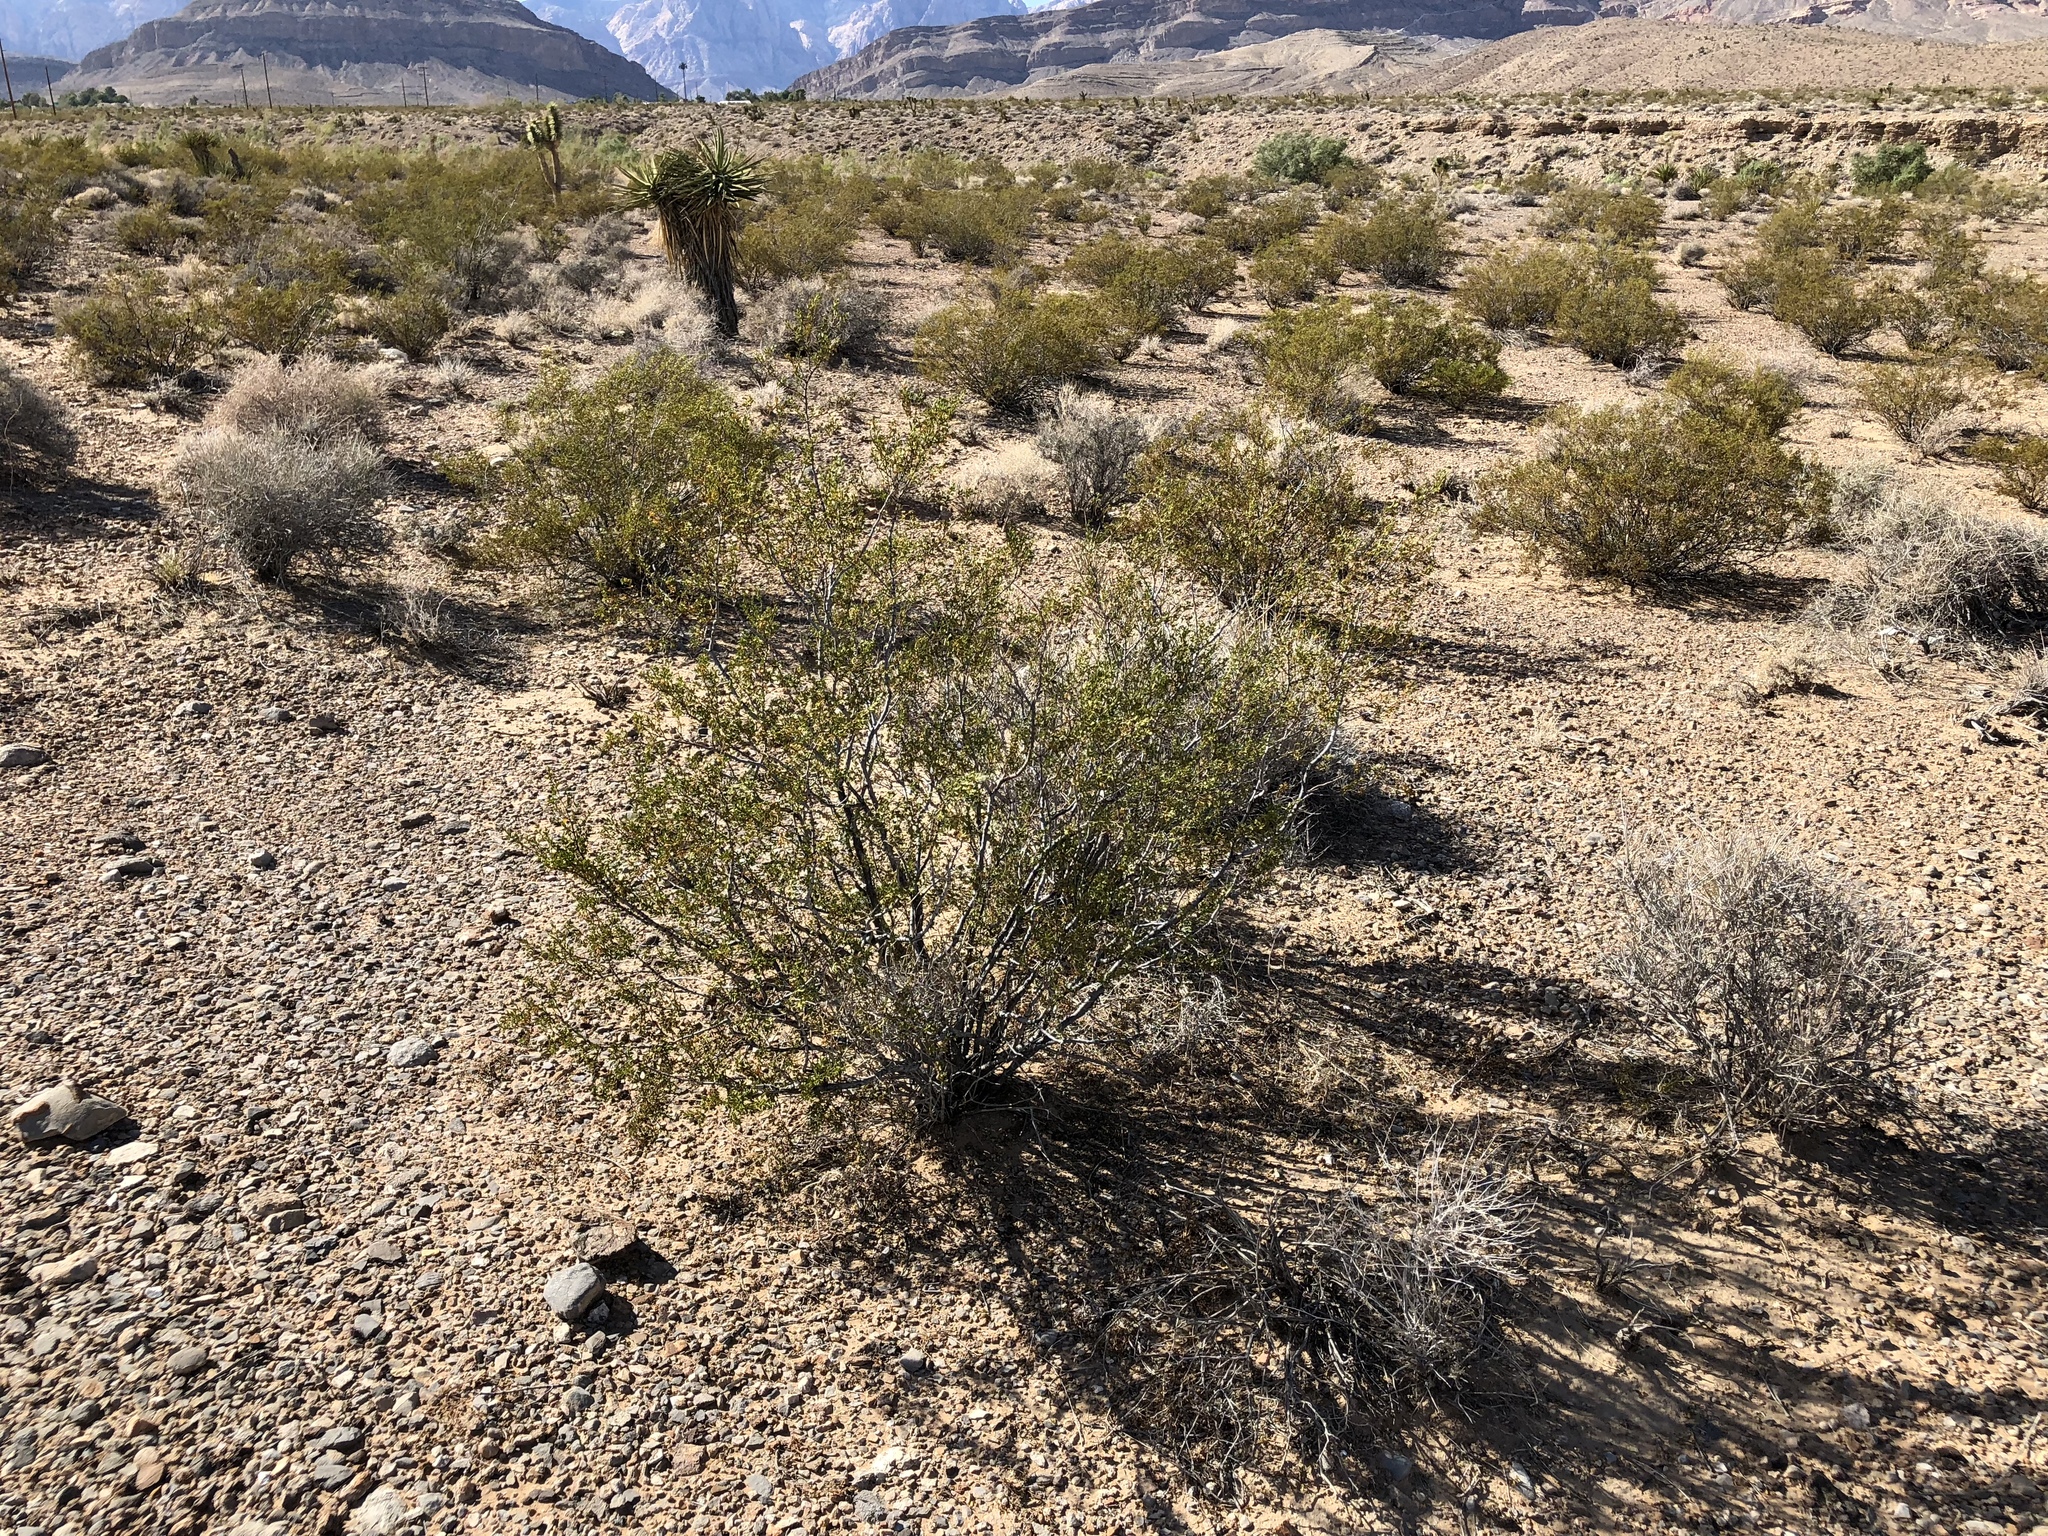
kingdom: Plantae
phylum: Tracheophyta
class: Magnoliopsida
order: Zygophyllales
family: Zygophyllaceae
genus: Larrea
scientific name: Larrea tridentata
